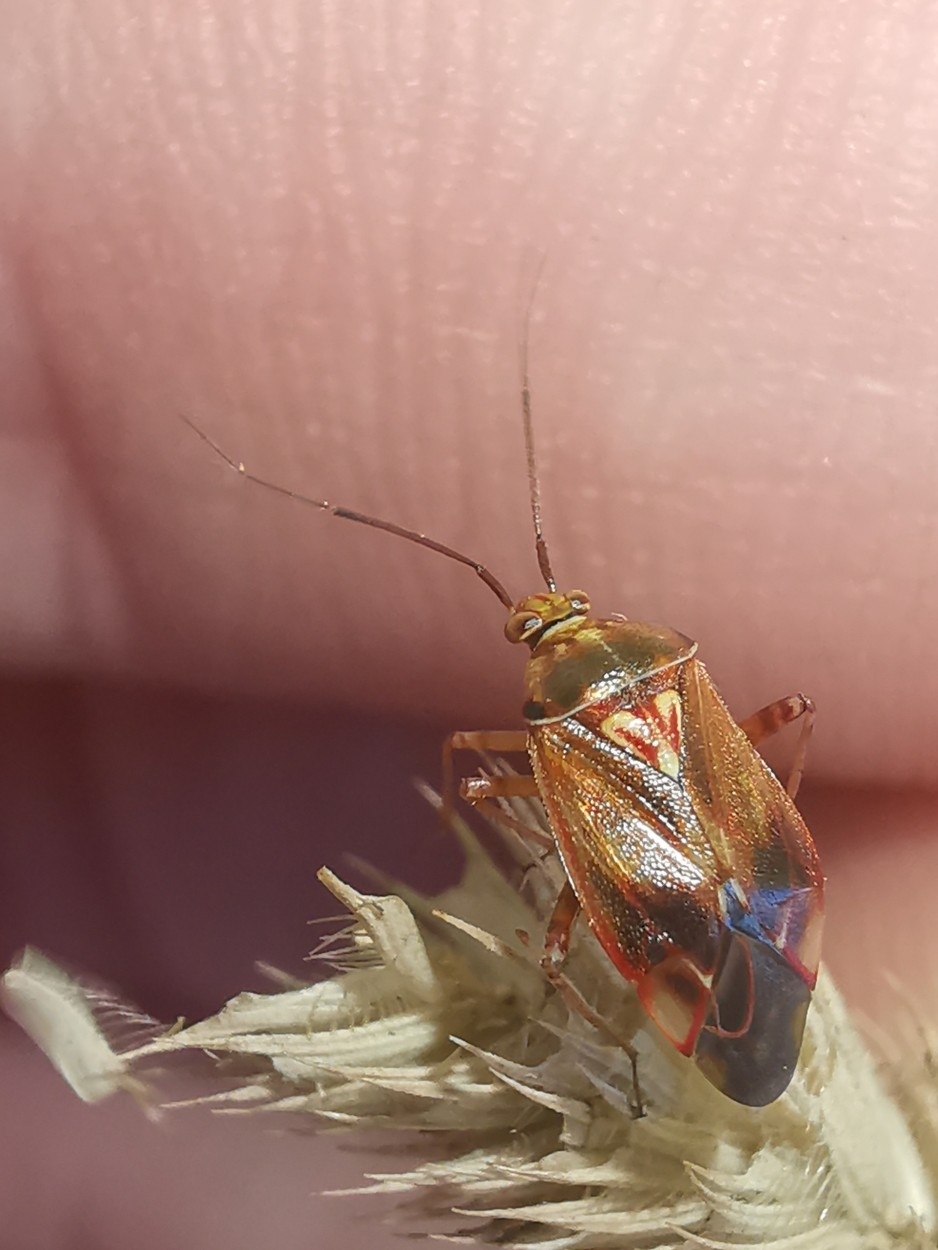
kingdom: Animalia
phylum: Arthropoda
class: Insecta
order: Hemiptera
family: Miridae
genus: Lygus
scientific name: Lygus lineolaris
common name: North american tarnished plant bug
